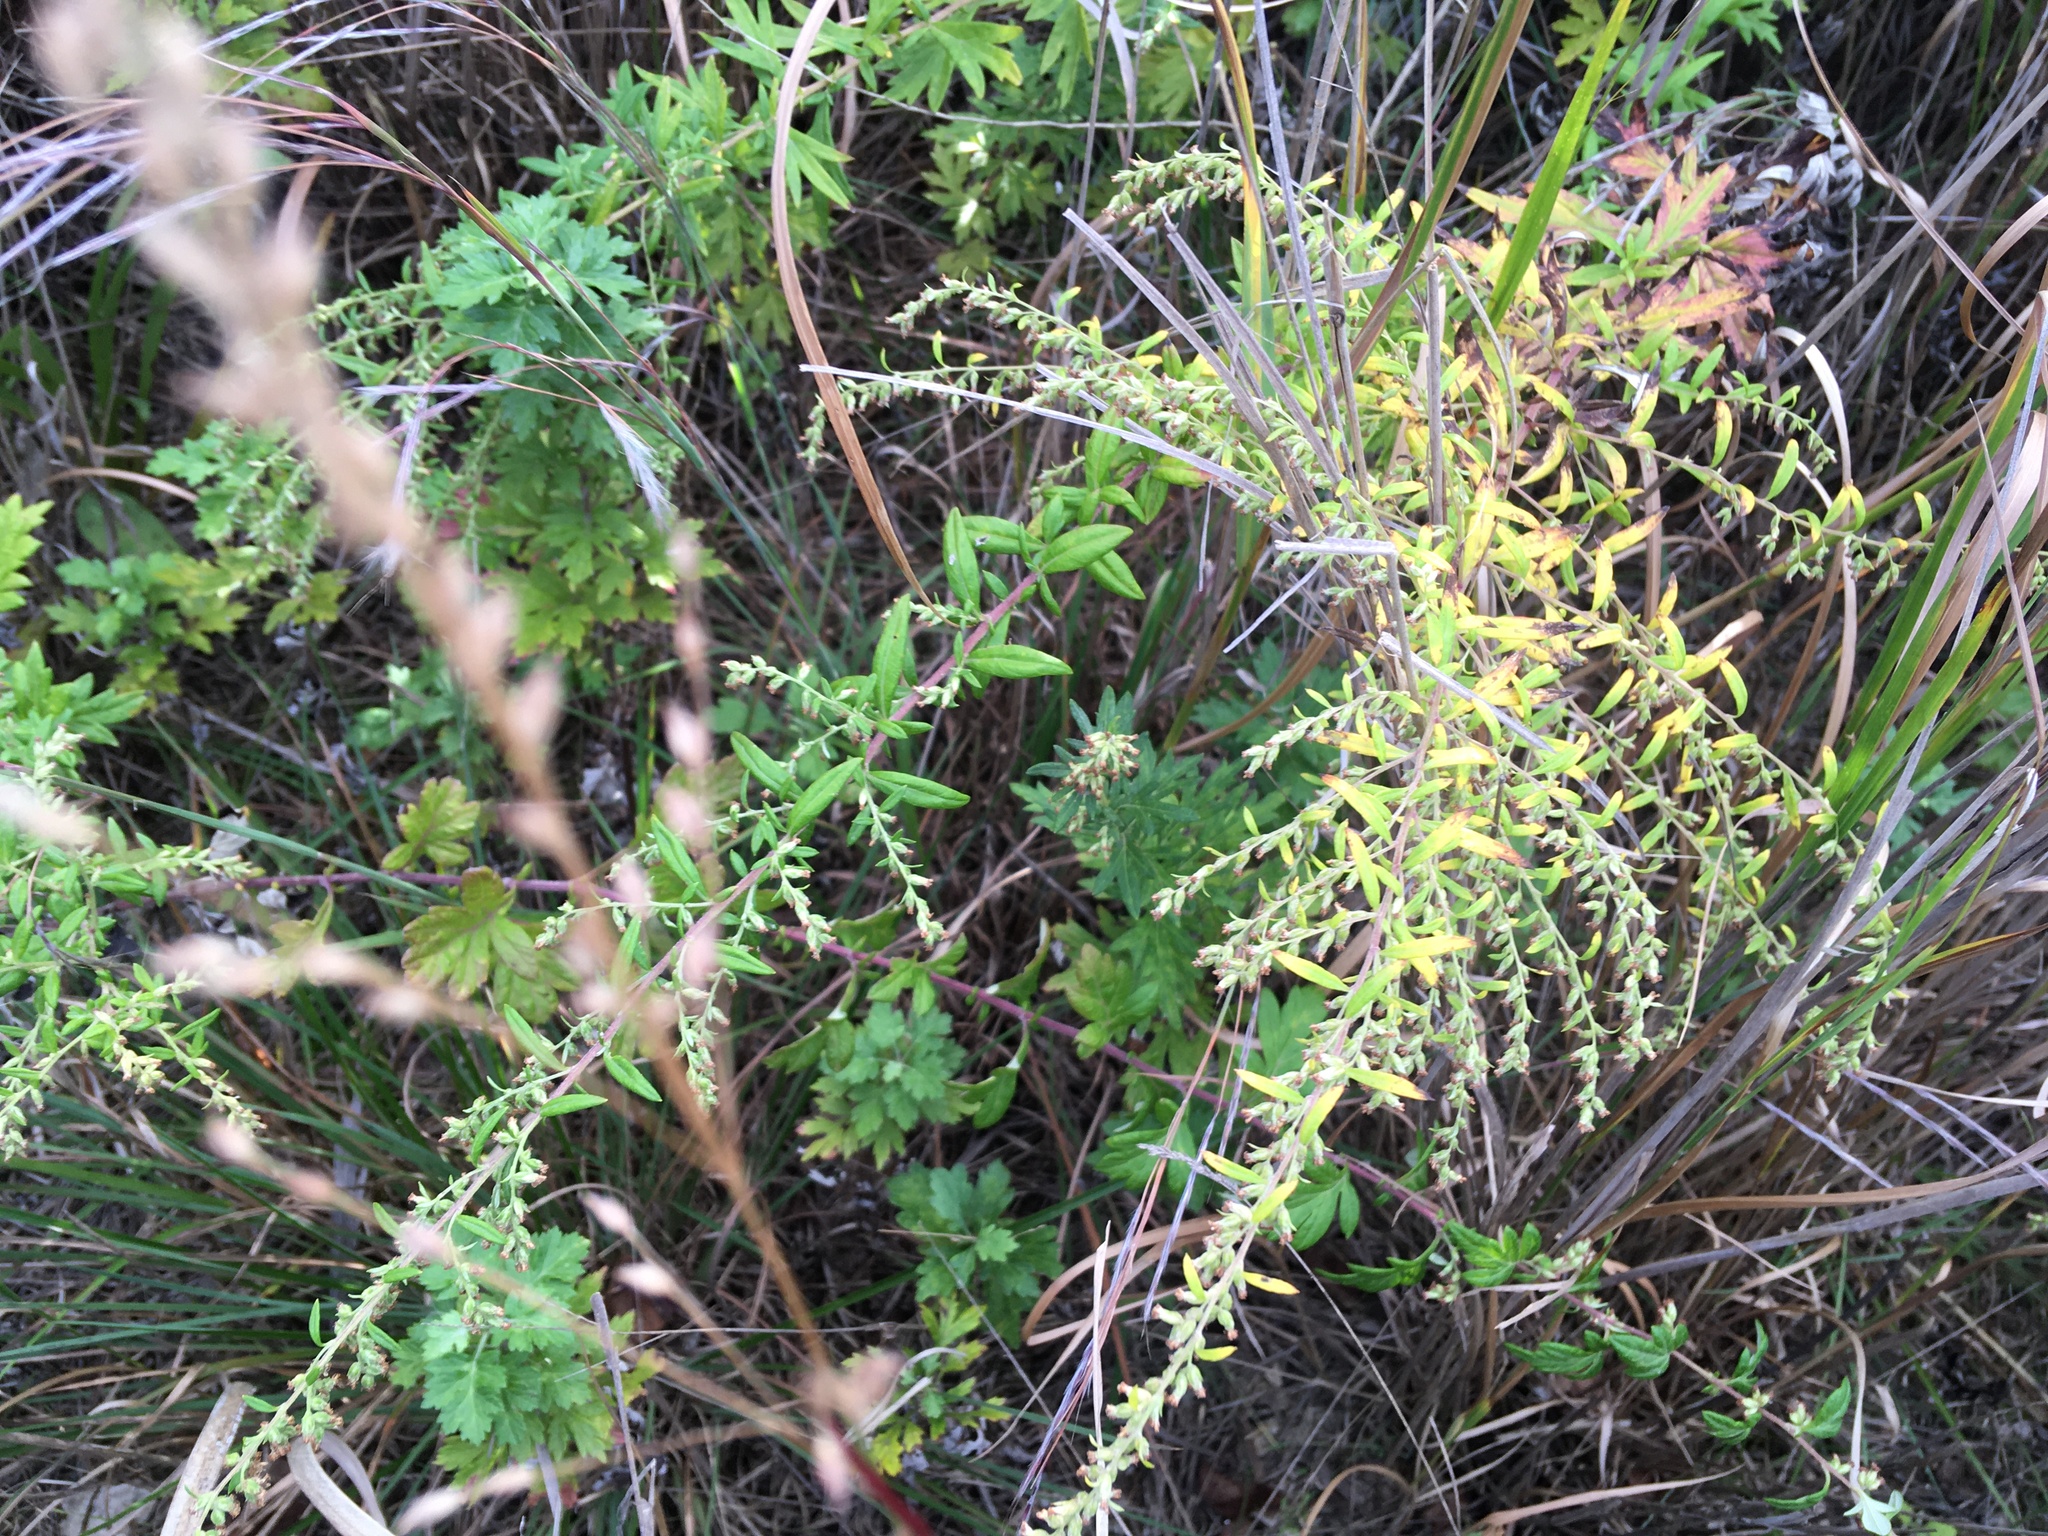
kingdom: Plantae
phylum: Tracheophyta
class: Magnoliopsida
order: Asterales
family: Asteraceae
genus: Artemisia
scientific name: Artemisia vulgaris
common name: Mugwort
